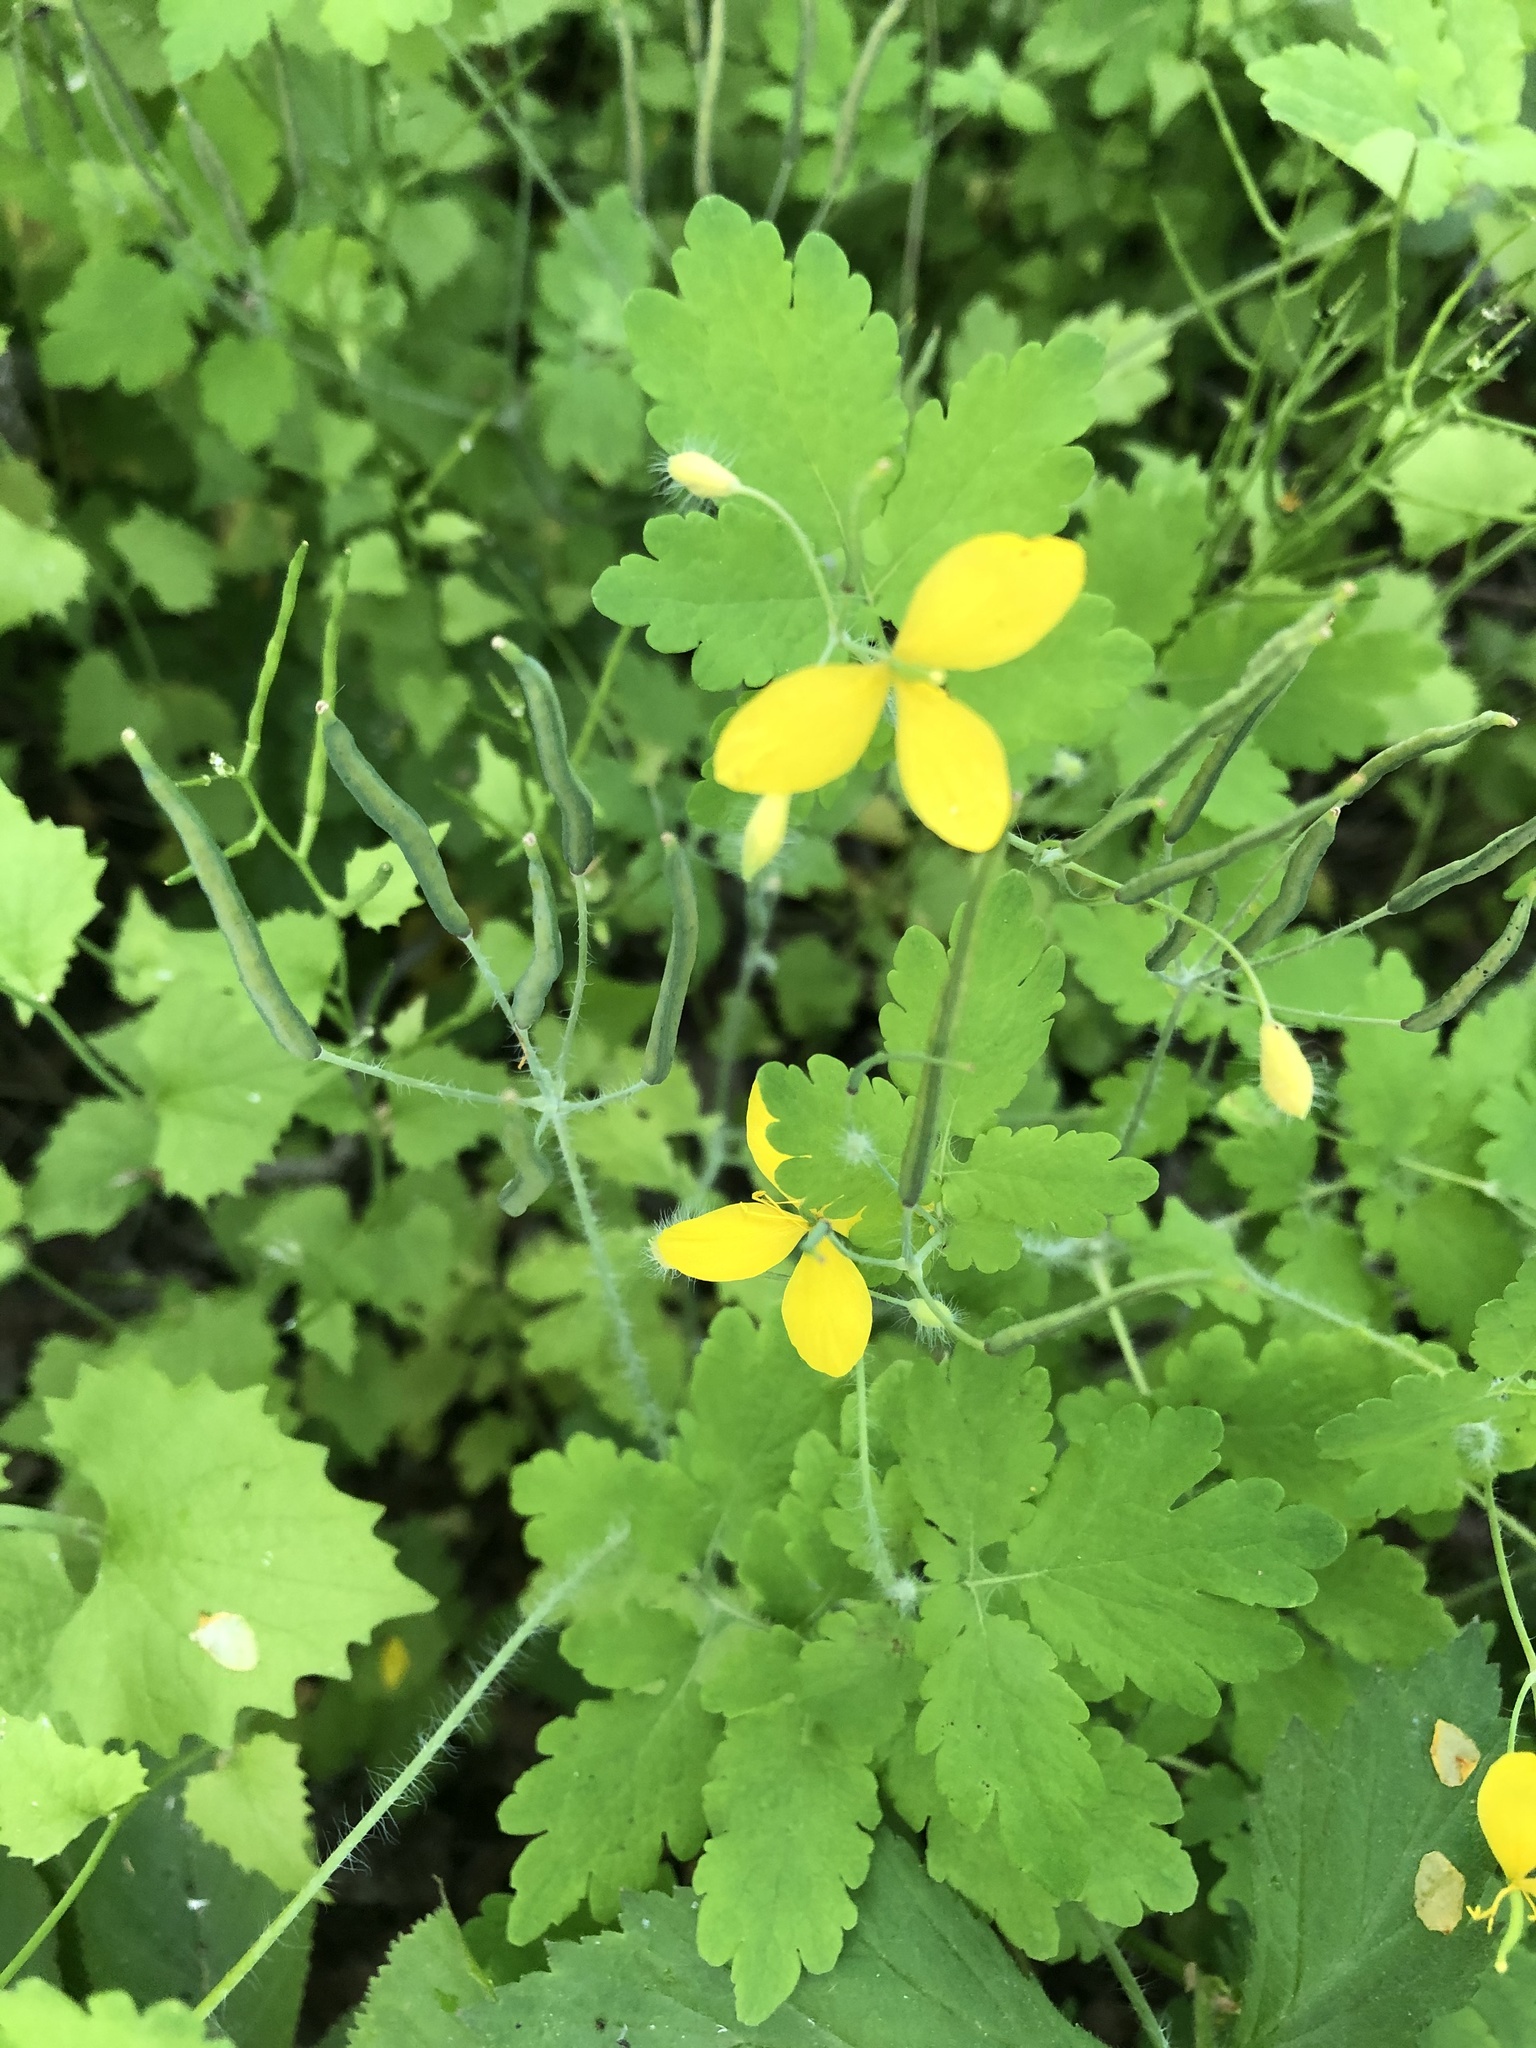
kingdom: Plantae
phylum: Tracheophyta
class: Magnoliopsida
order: Ranunculales
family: Papaveraceae
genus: Chelidonium
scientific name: Chelidonium majus
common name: Greater celandine
